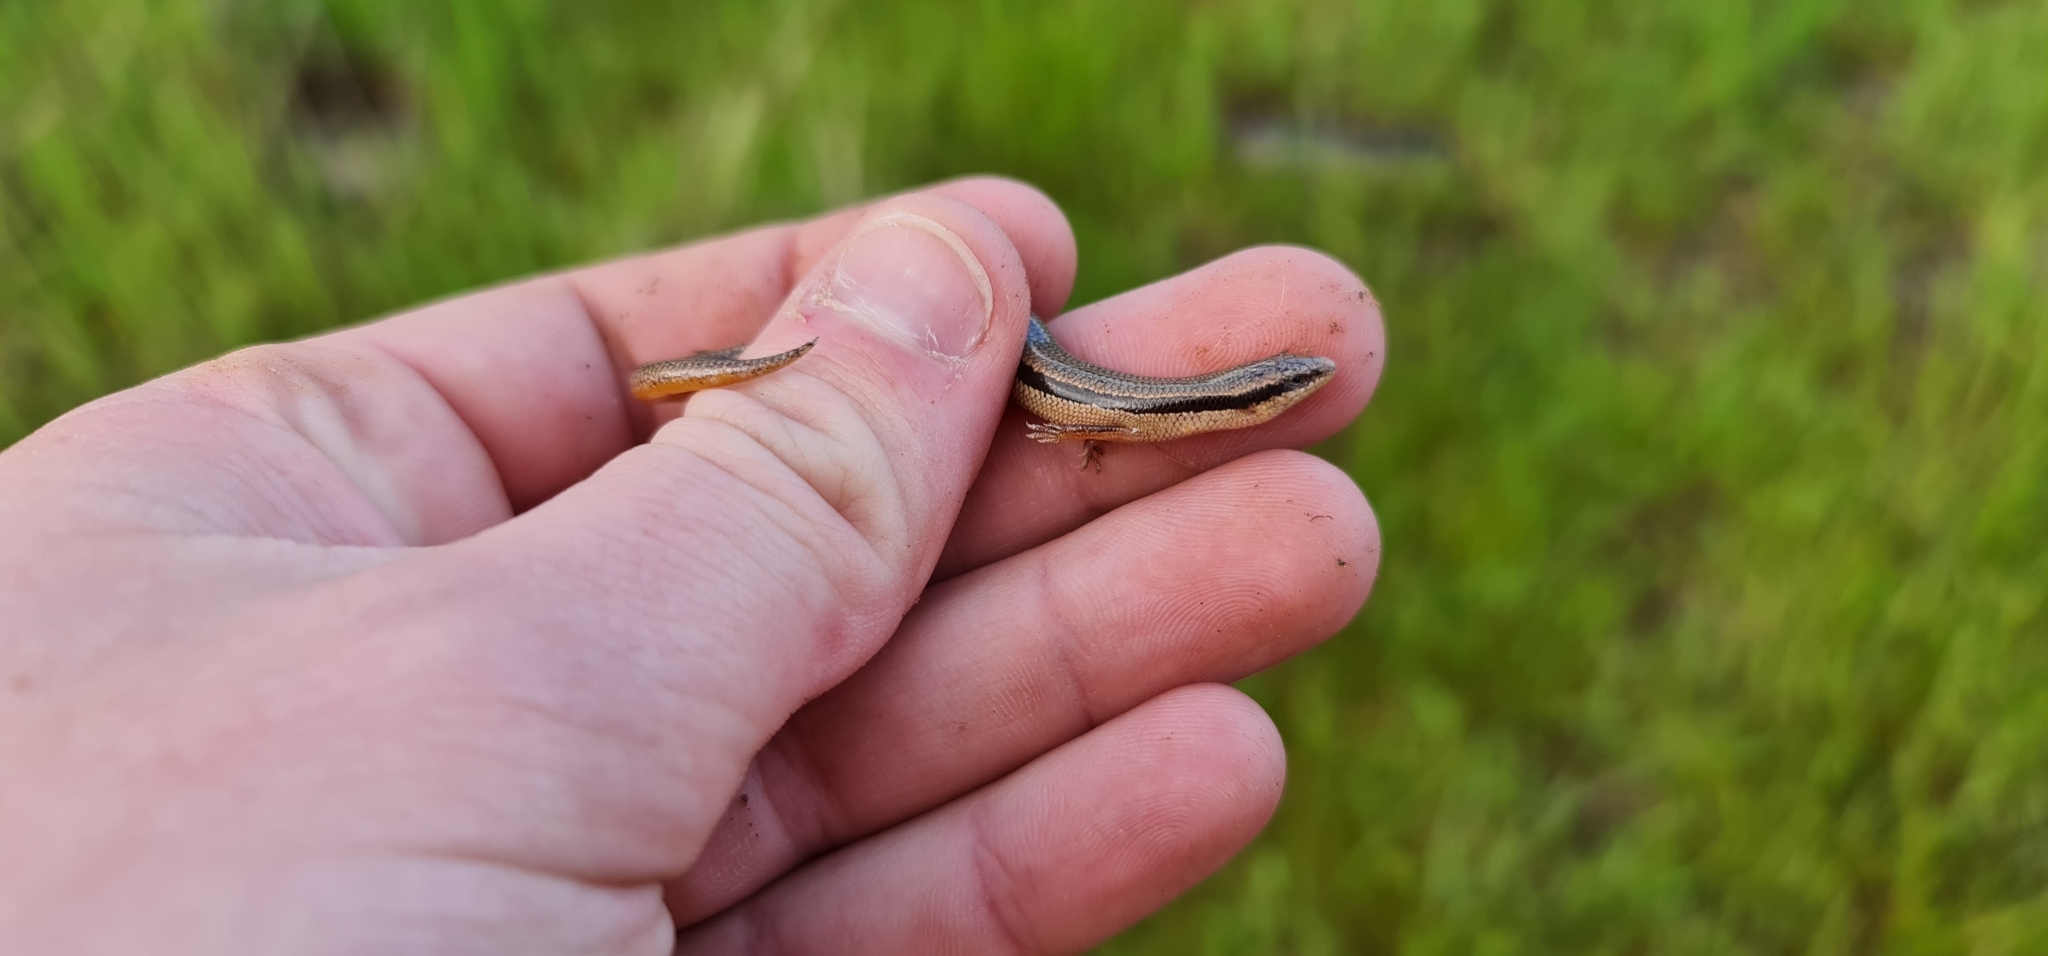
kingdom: Animalia
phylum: Chordata
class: Squamata
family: Scincidae
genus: Lerista
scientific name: Lerista bougainvillii
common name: South-eastern slider
